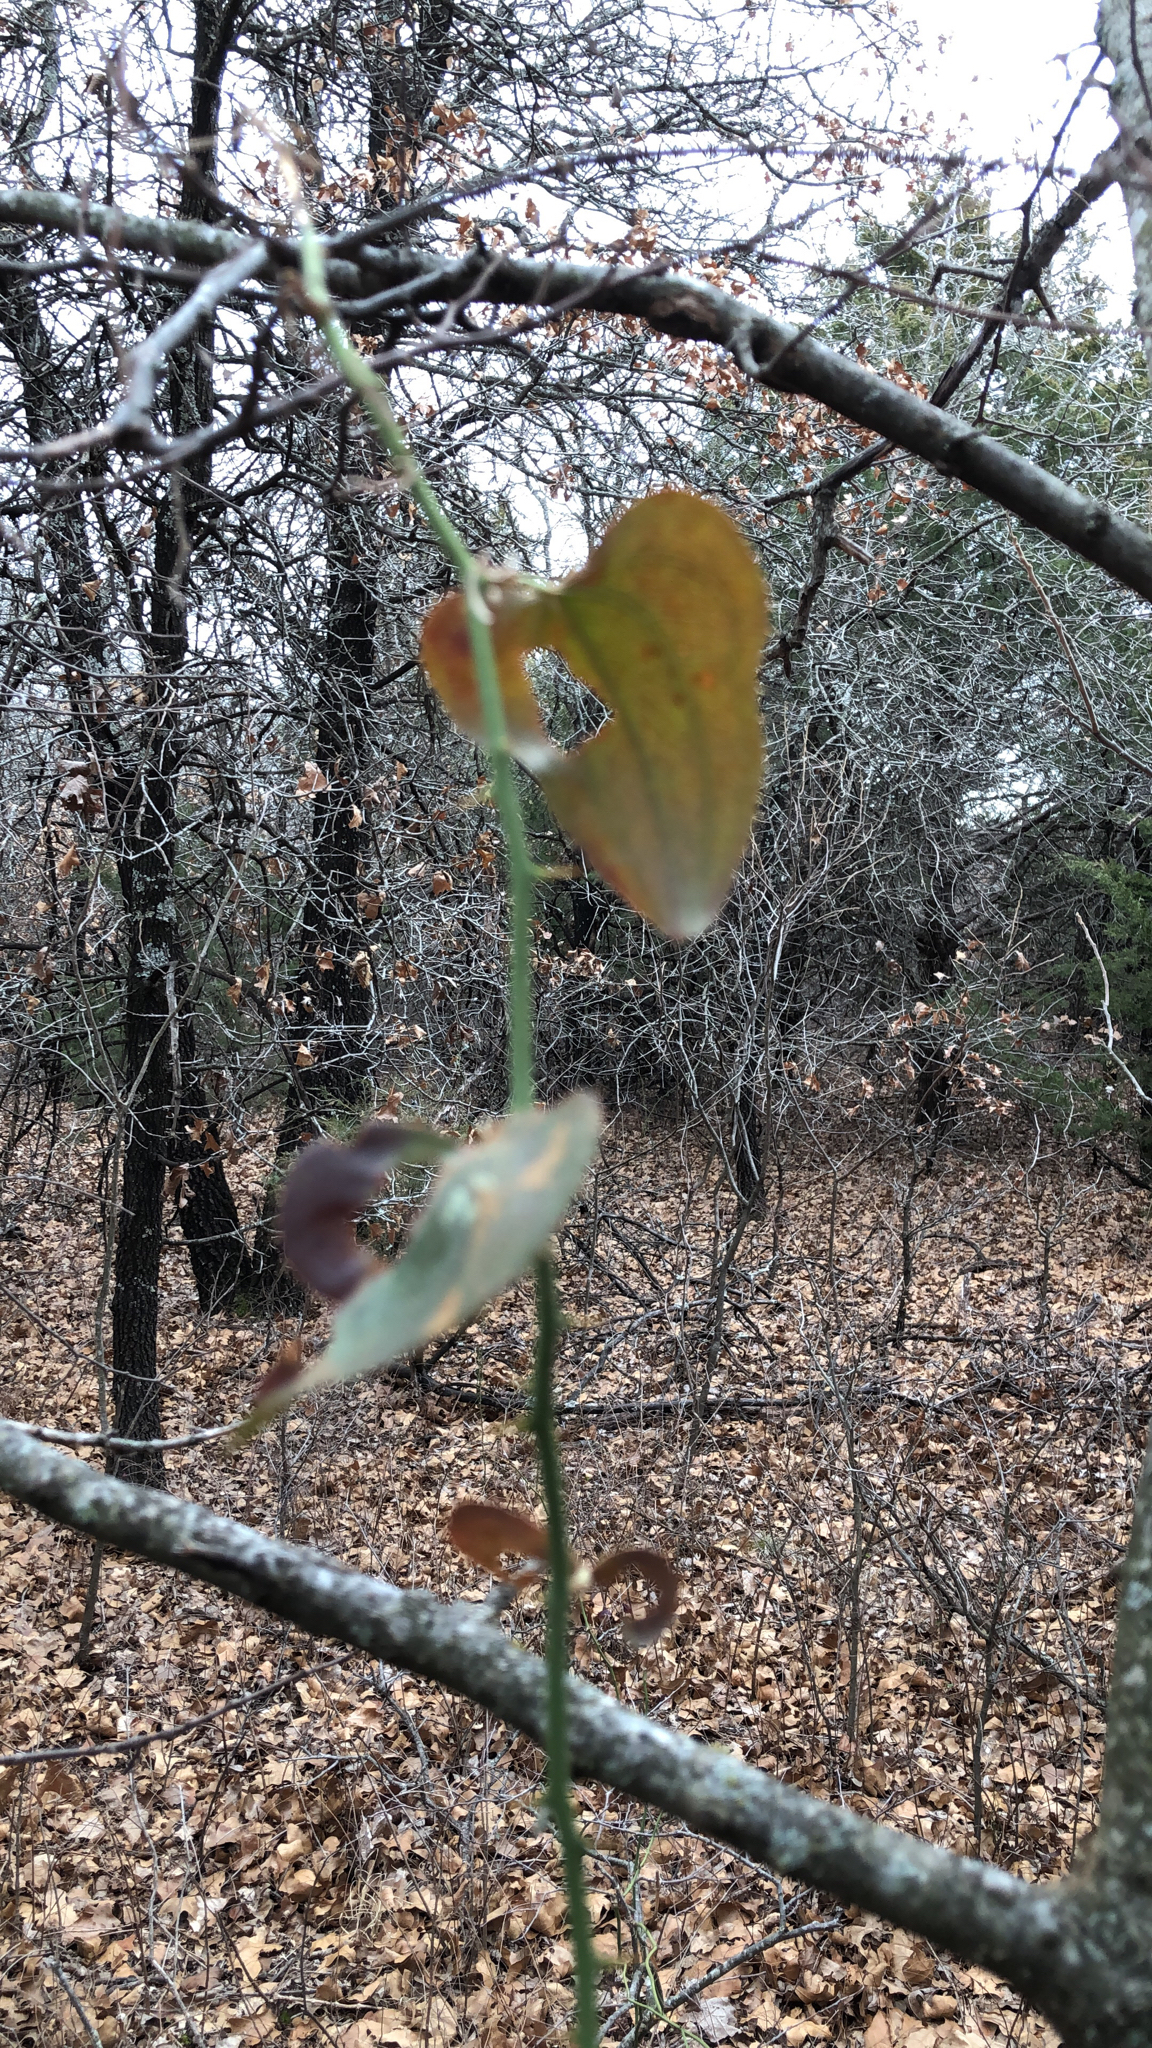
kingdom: Plantae
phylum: Tracheophyta
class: Liliopsida
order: Liliales
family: Smilacaceae
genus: Smilax
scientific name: Smilax bona-nox
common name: Catbrier
